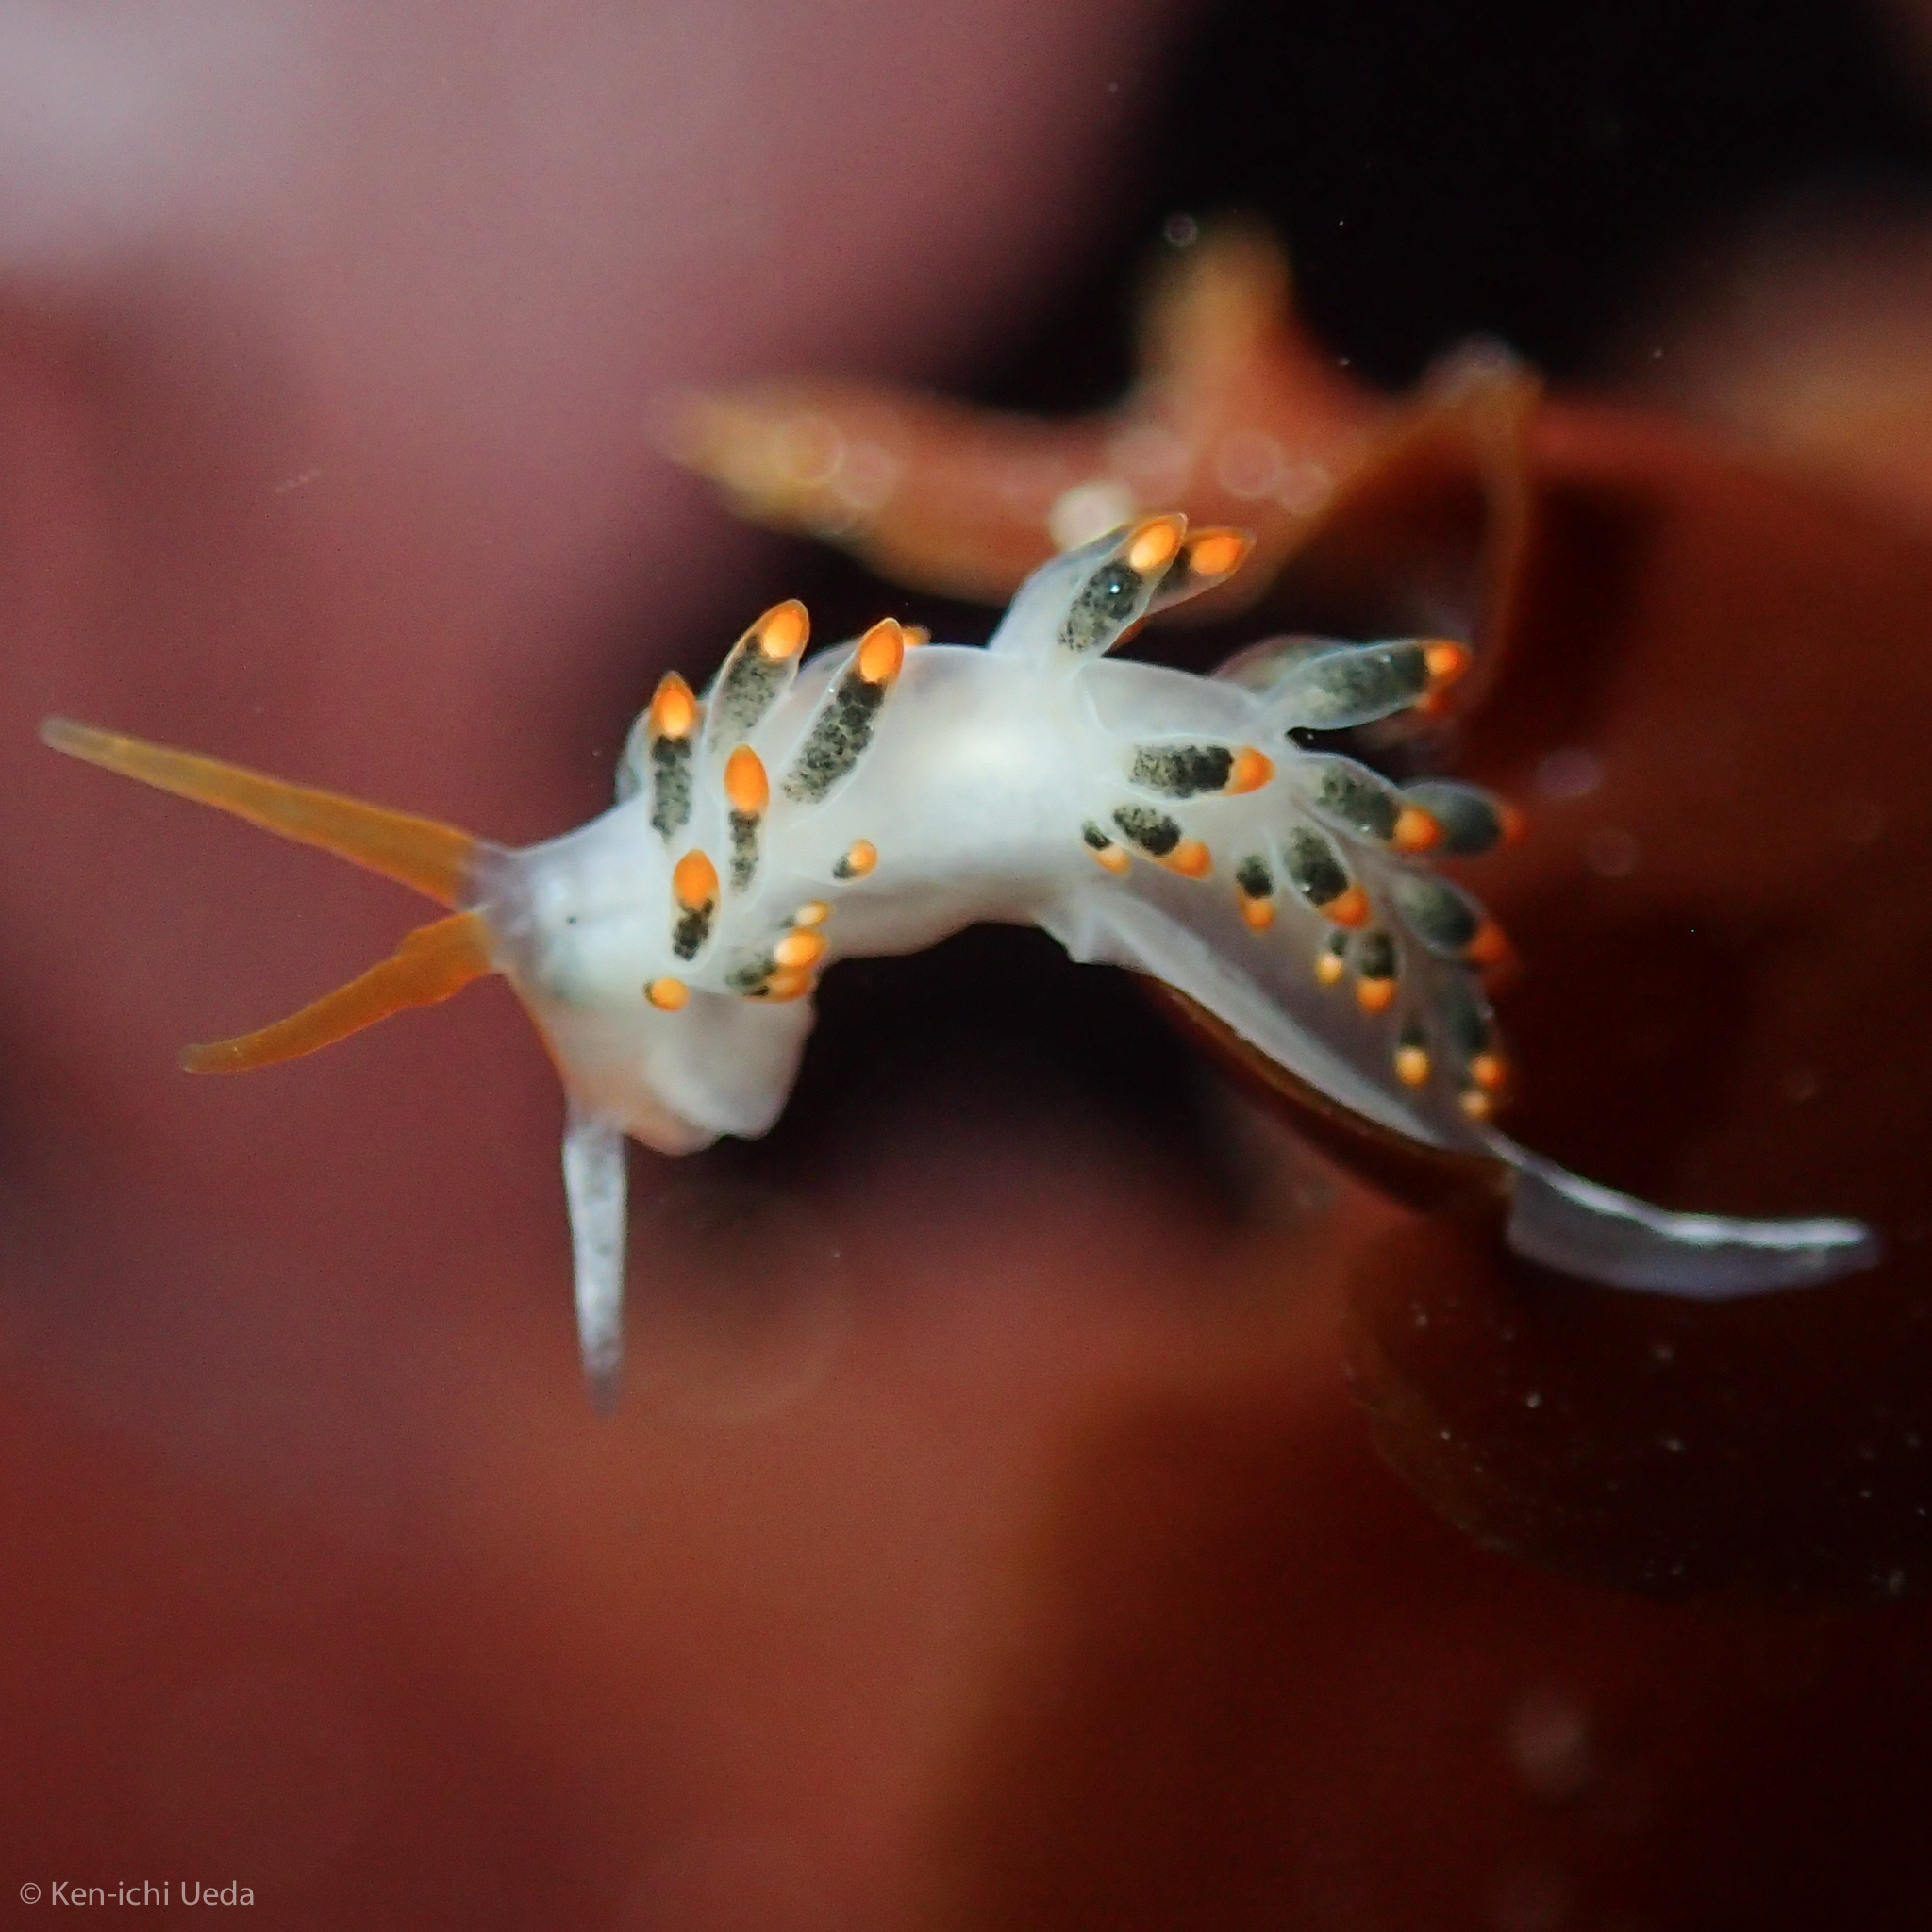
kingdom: Animalia
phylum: Mollusca
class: Gastropoda
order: Nudibranchia
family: Trinchesiidae
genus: Diaphoreolis
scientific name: Diaphoreolis lagunae
